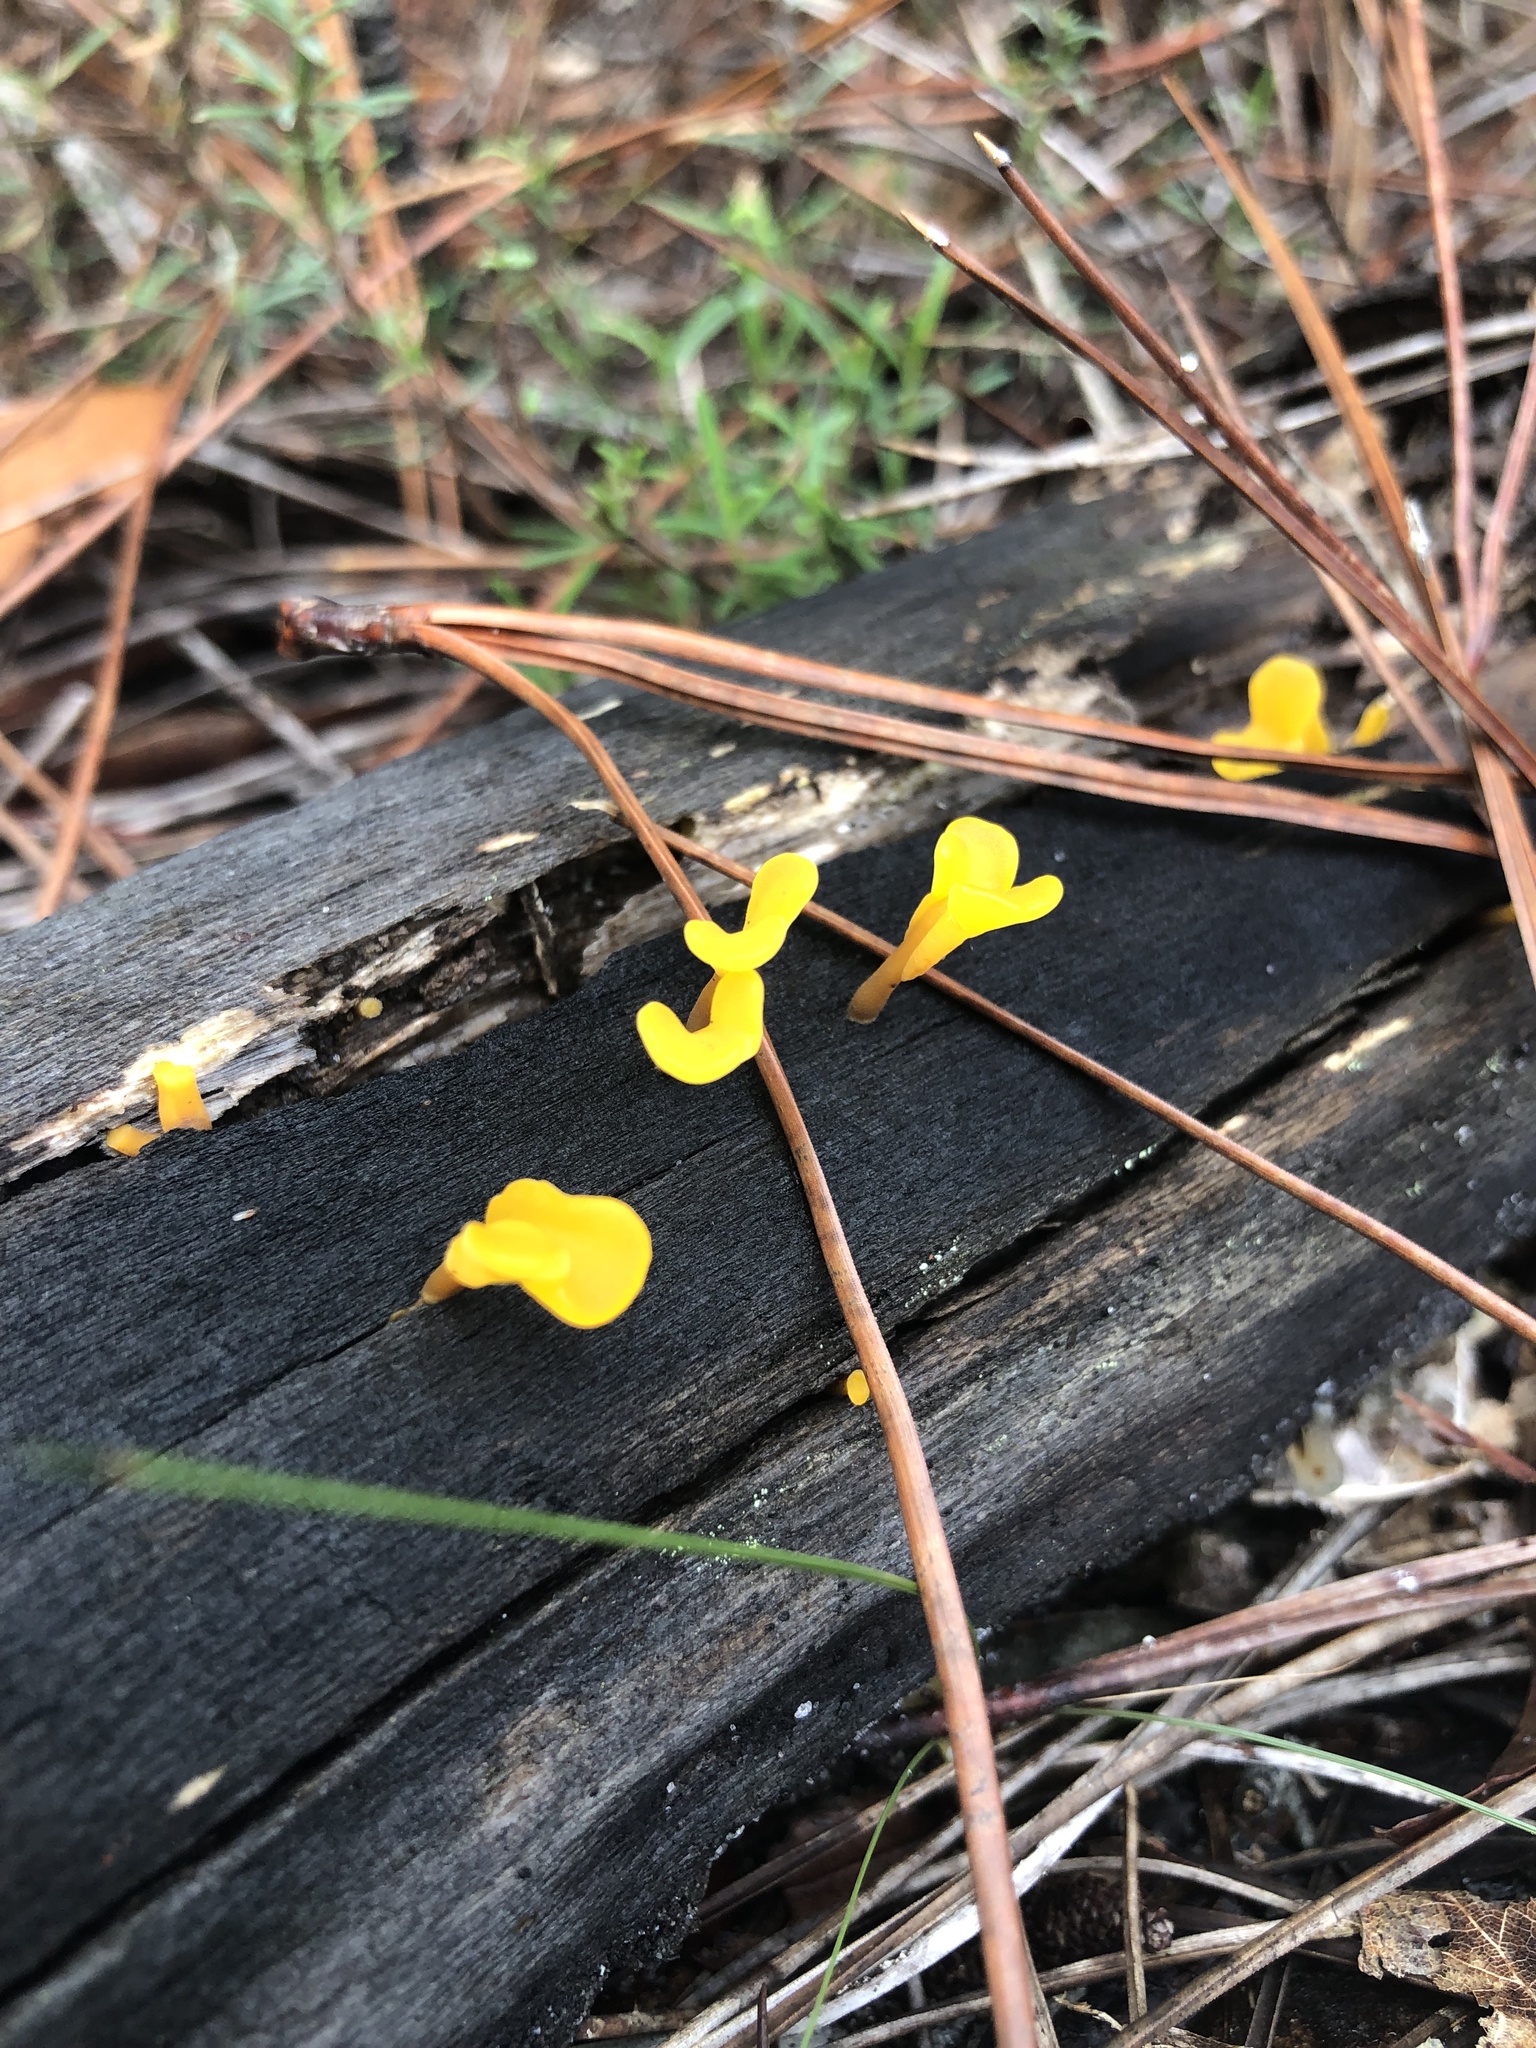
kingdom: Fungi
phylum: Basidiomycota
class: Dacrymycetes
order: Dacrymycetales
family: Dacrymycetaceae
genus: Dacrymyces
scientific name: Dacrymyces spathularius
